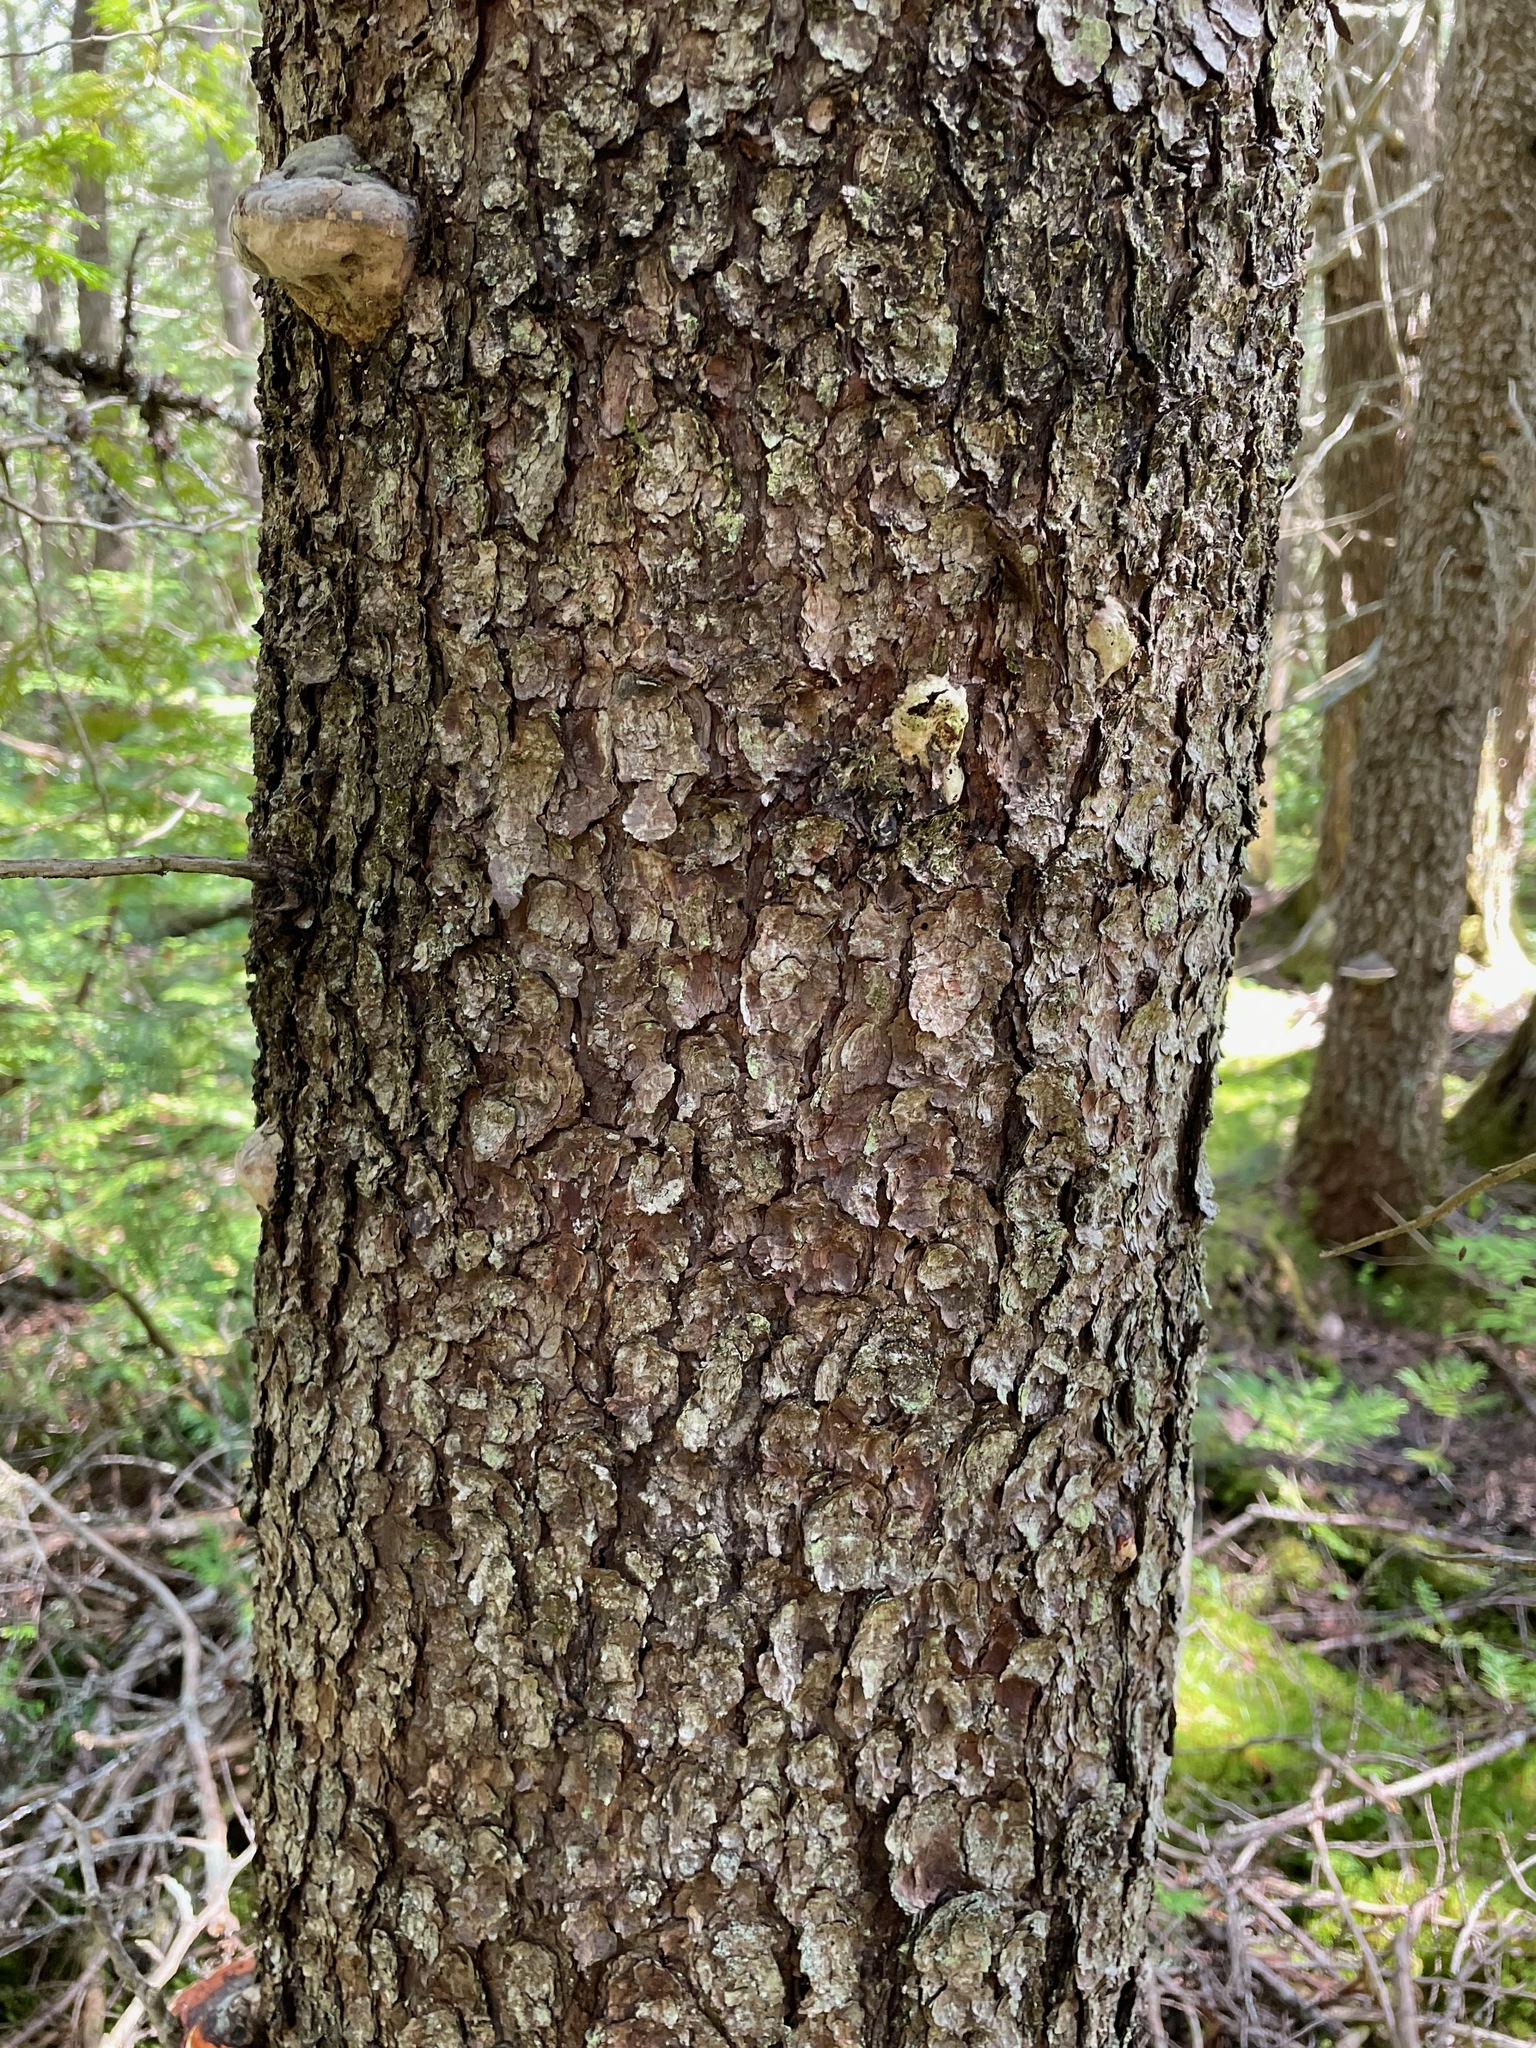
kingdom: Plantae
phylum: Tracheophyta
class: Pinopsida
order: Pinales
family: Cupressaceae
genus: Thuja
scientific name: Thuja occidentalis
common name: Northern white-cedar
